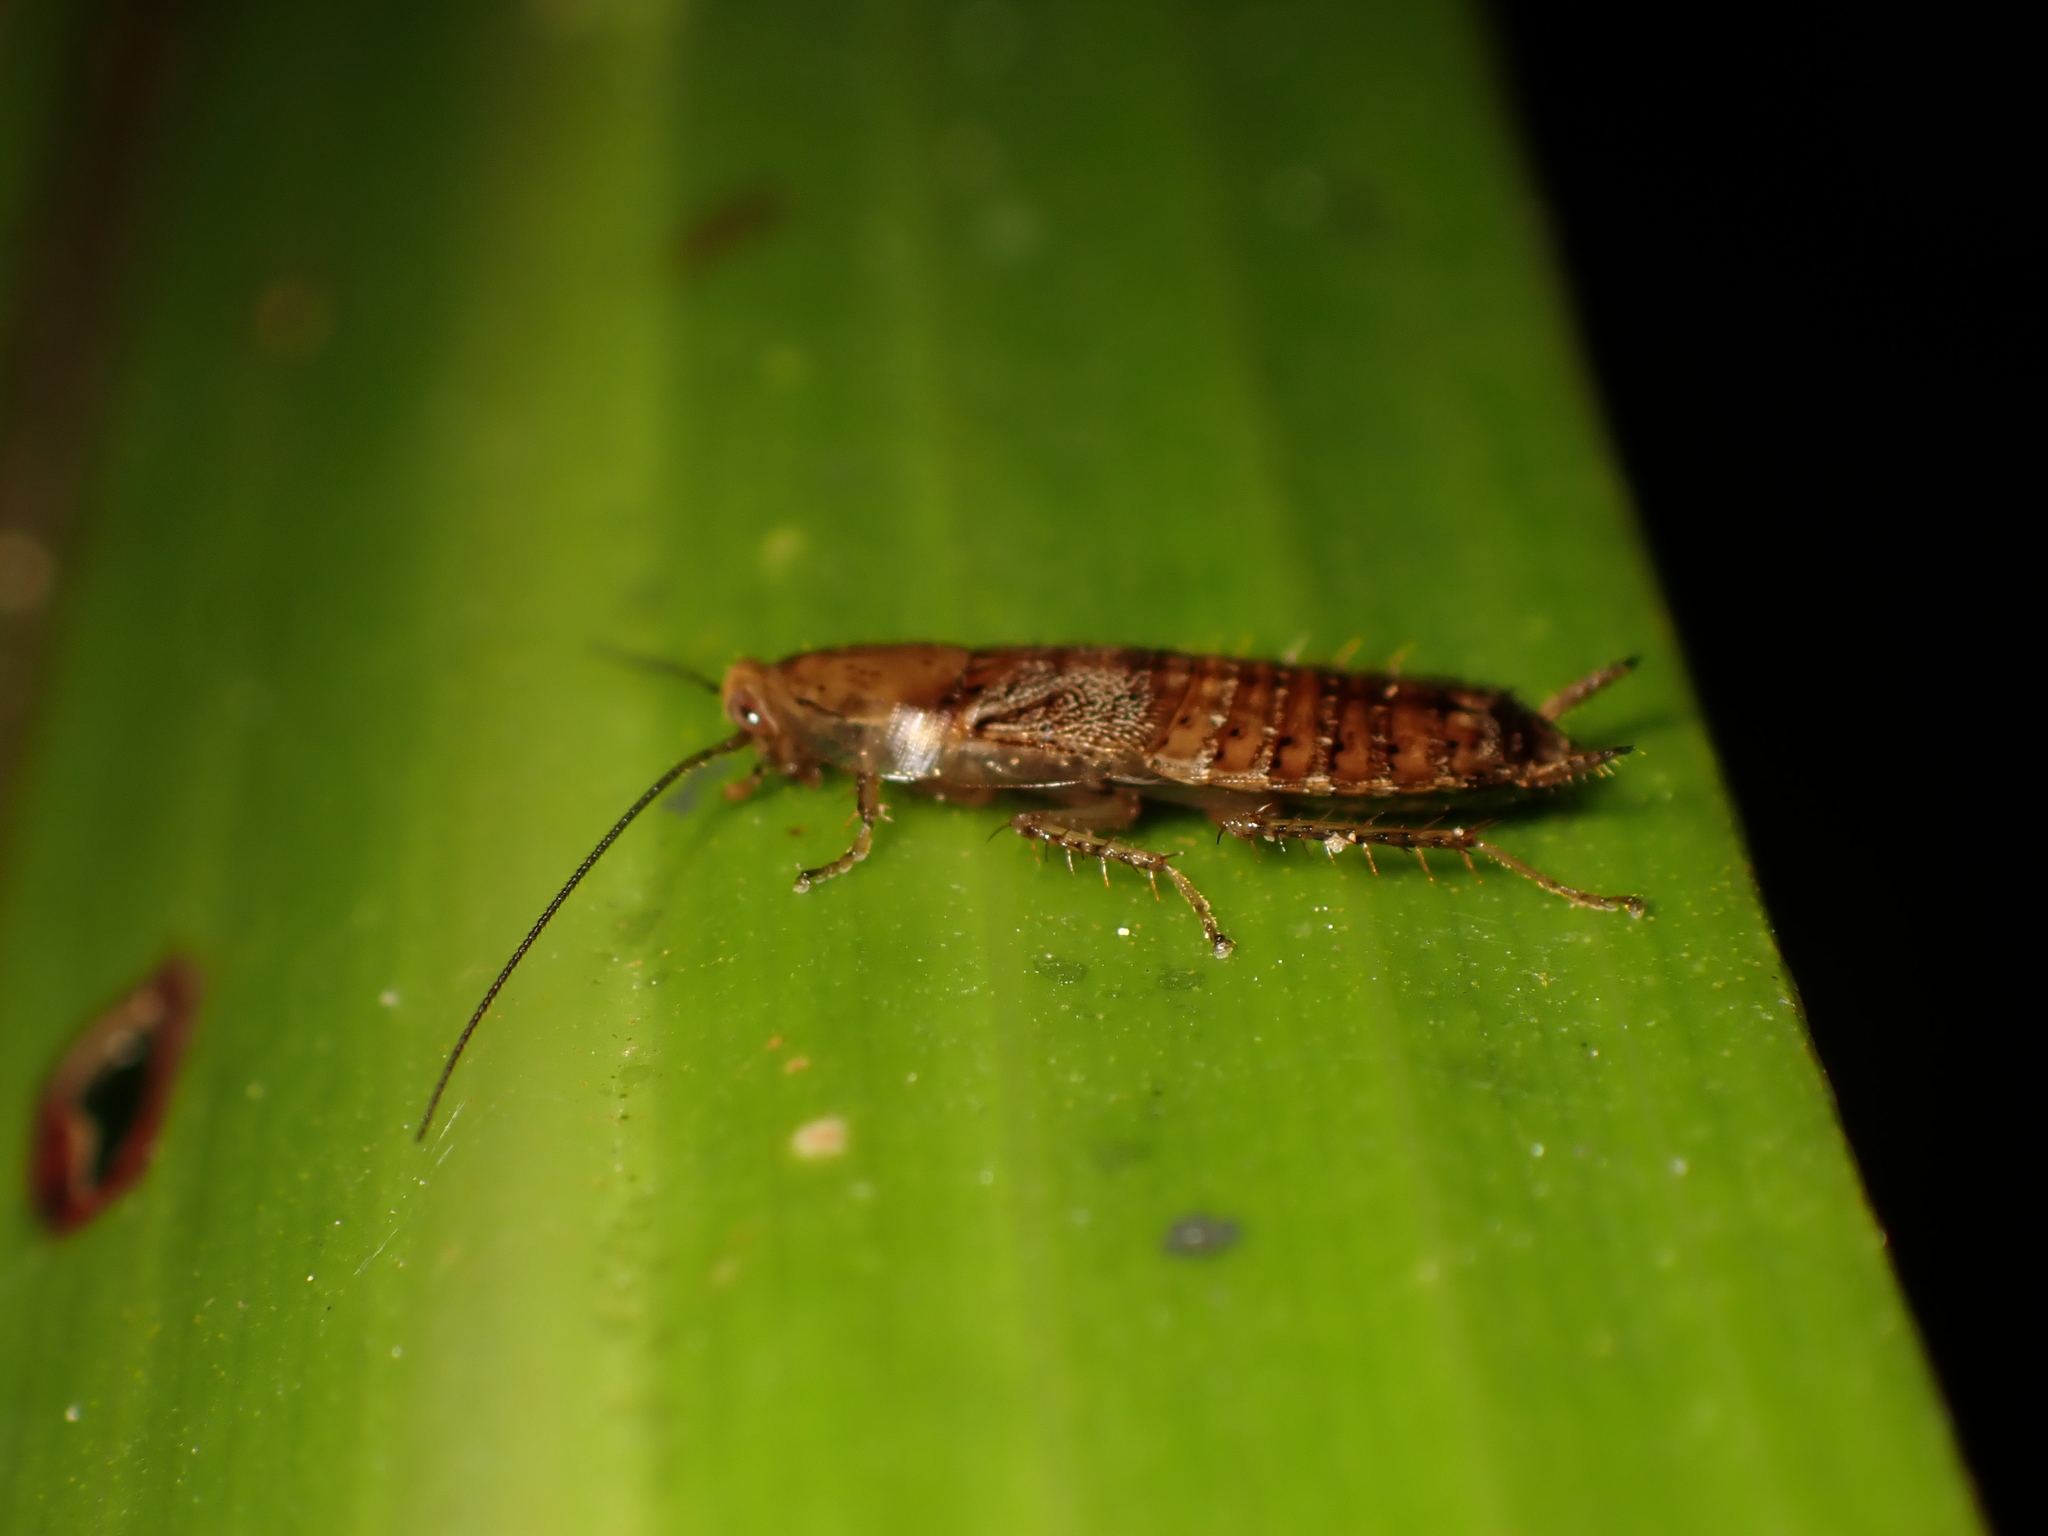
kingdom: Animalia
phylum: Arthropoda
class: Insecta
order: Blattodea
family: Ectobiidae
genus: Parellipsidion
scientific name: Parellipsidion pachycercum
